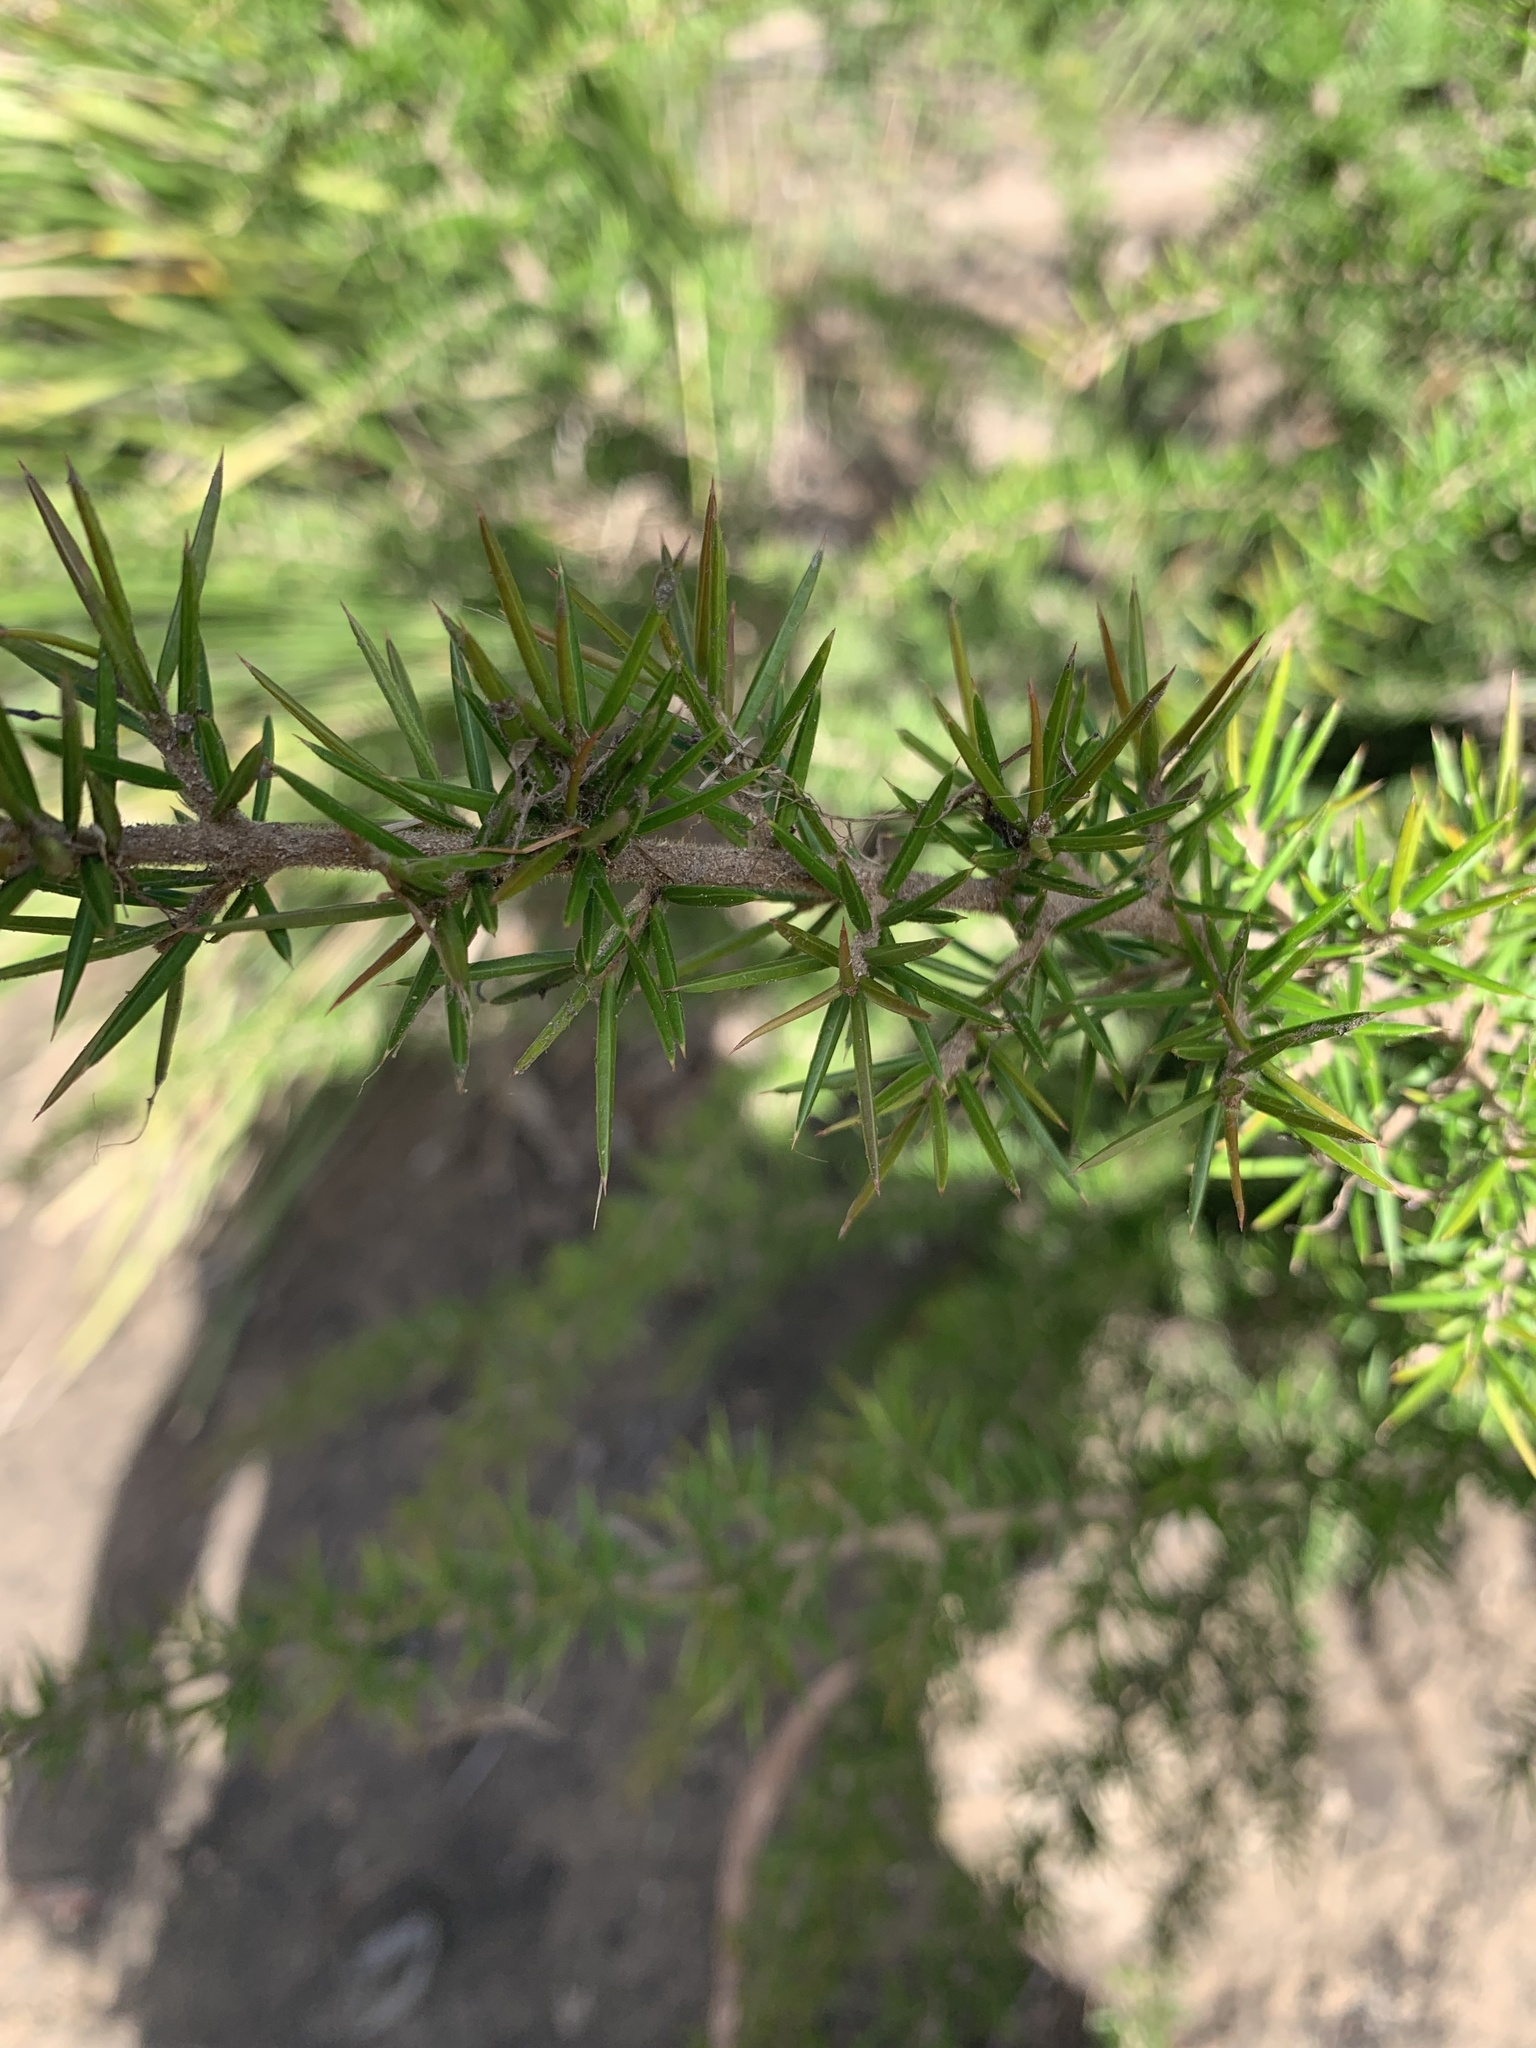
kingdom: Plantae
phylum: Tracheophyta
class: Magnoliopsida
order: Proteales
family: Proteaceae
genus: Grevillea
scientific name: Grevillea juniperina
